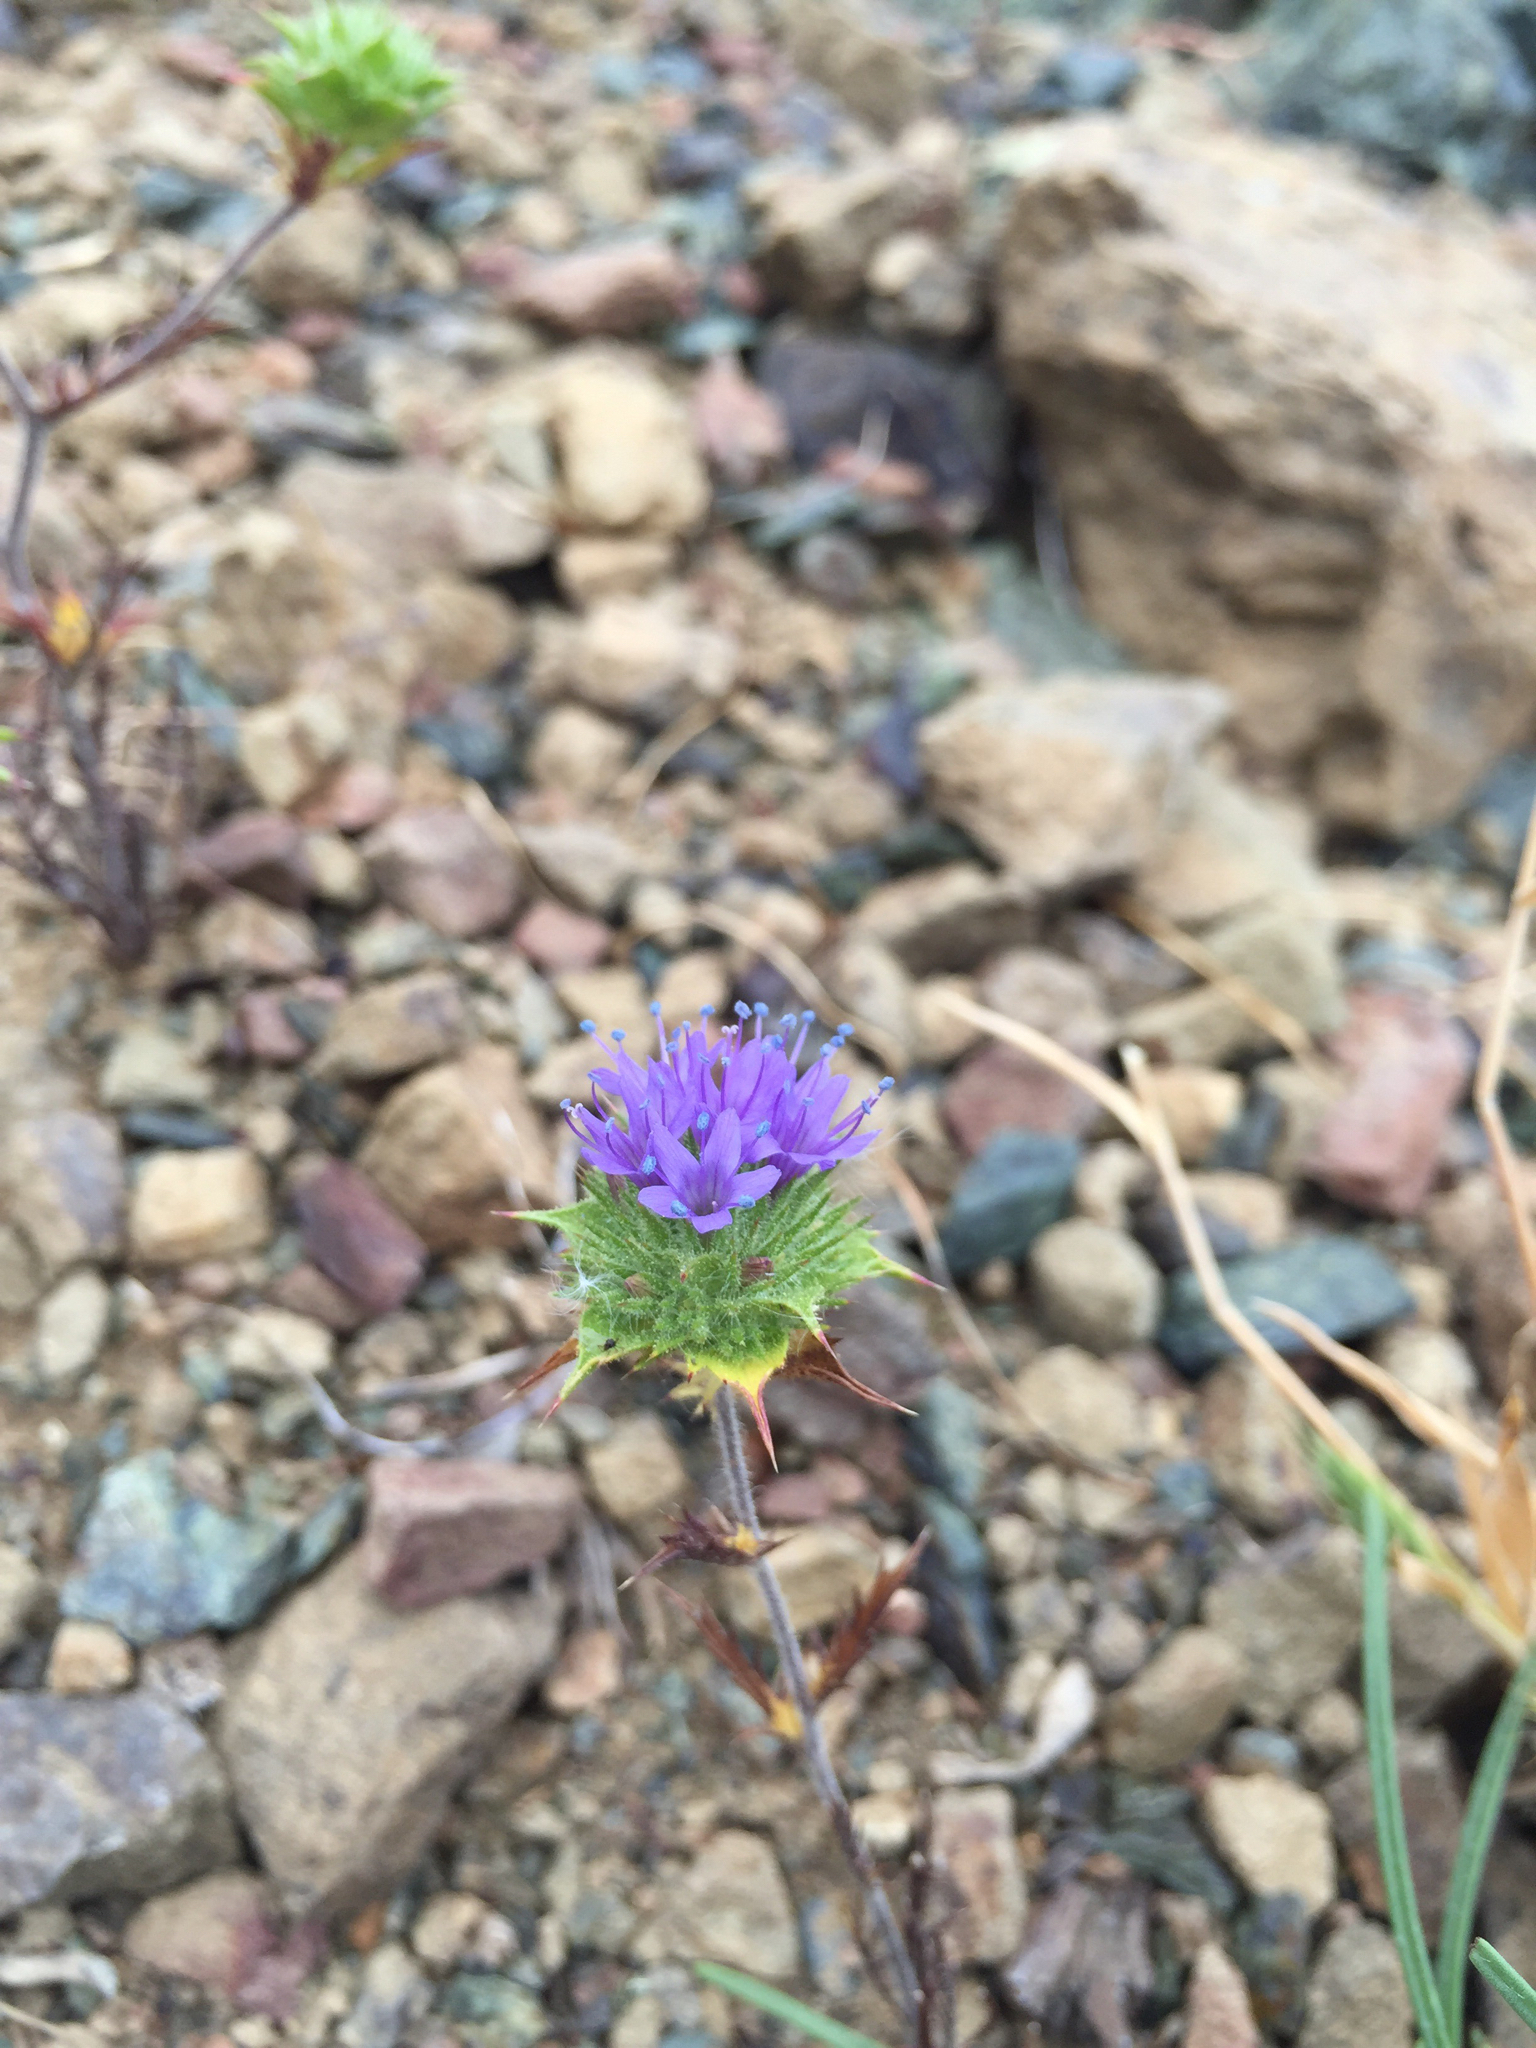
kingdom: Plantae
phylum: Tracheophyta
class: Magnoliopsida
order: Ericales
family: Polemoniaceae
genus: Navarretia
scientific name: Navarretia heterodoxa
